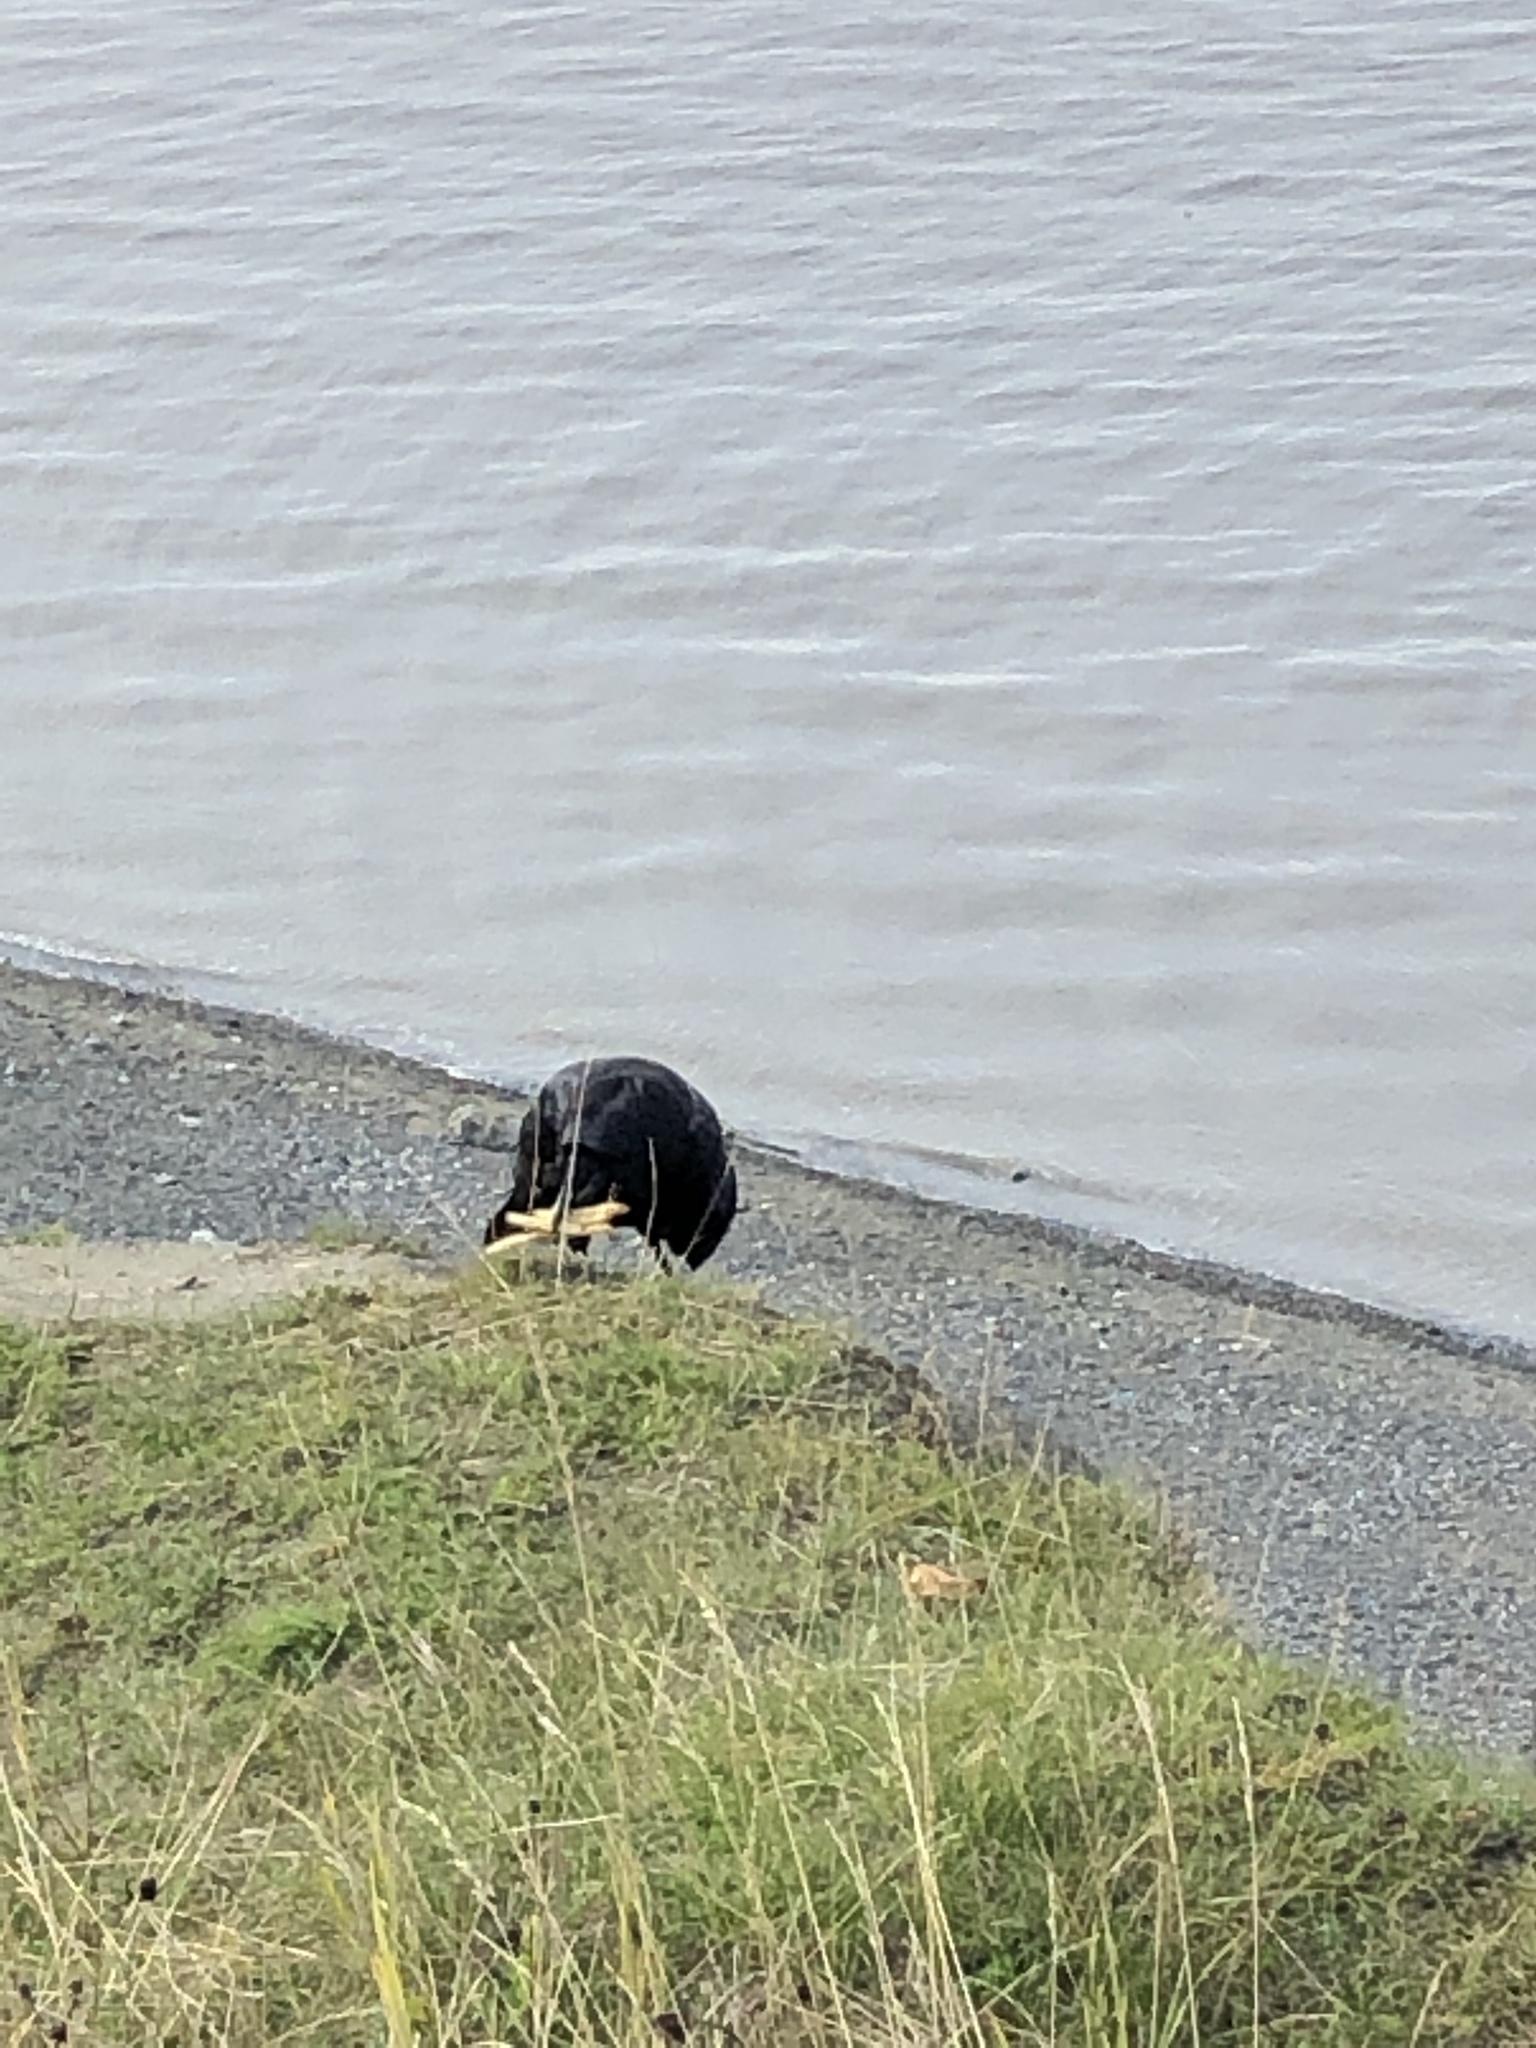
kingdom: Animalia
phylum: Chordata
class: Aves
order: Passeriformes
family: Corvidae
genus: Corvus
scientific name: Corvus corax
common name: Common raven
